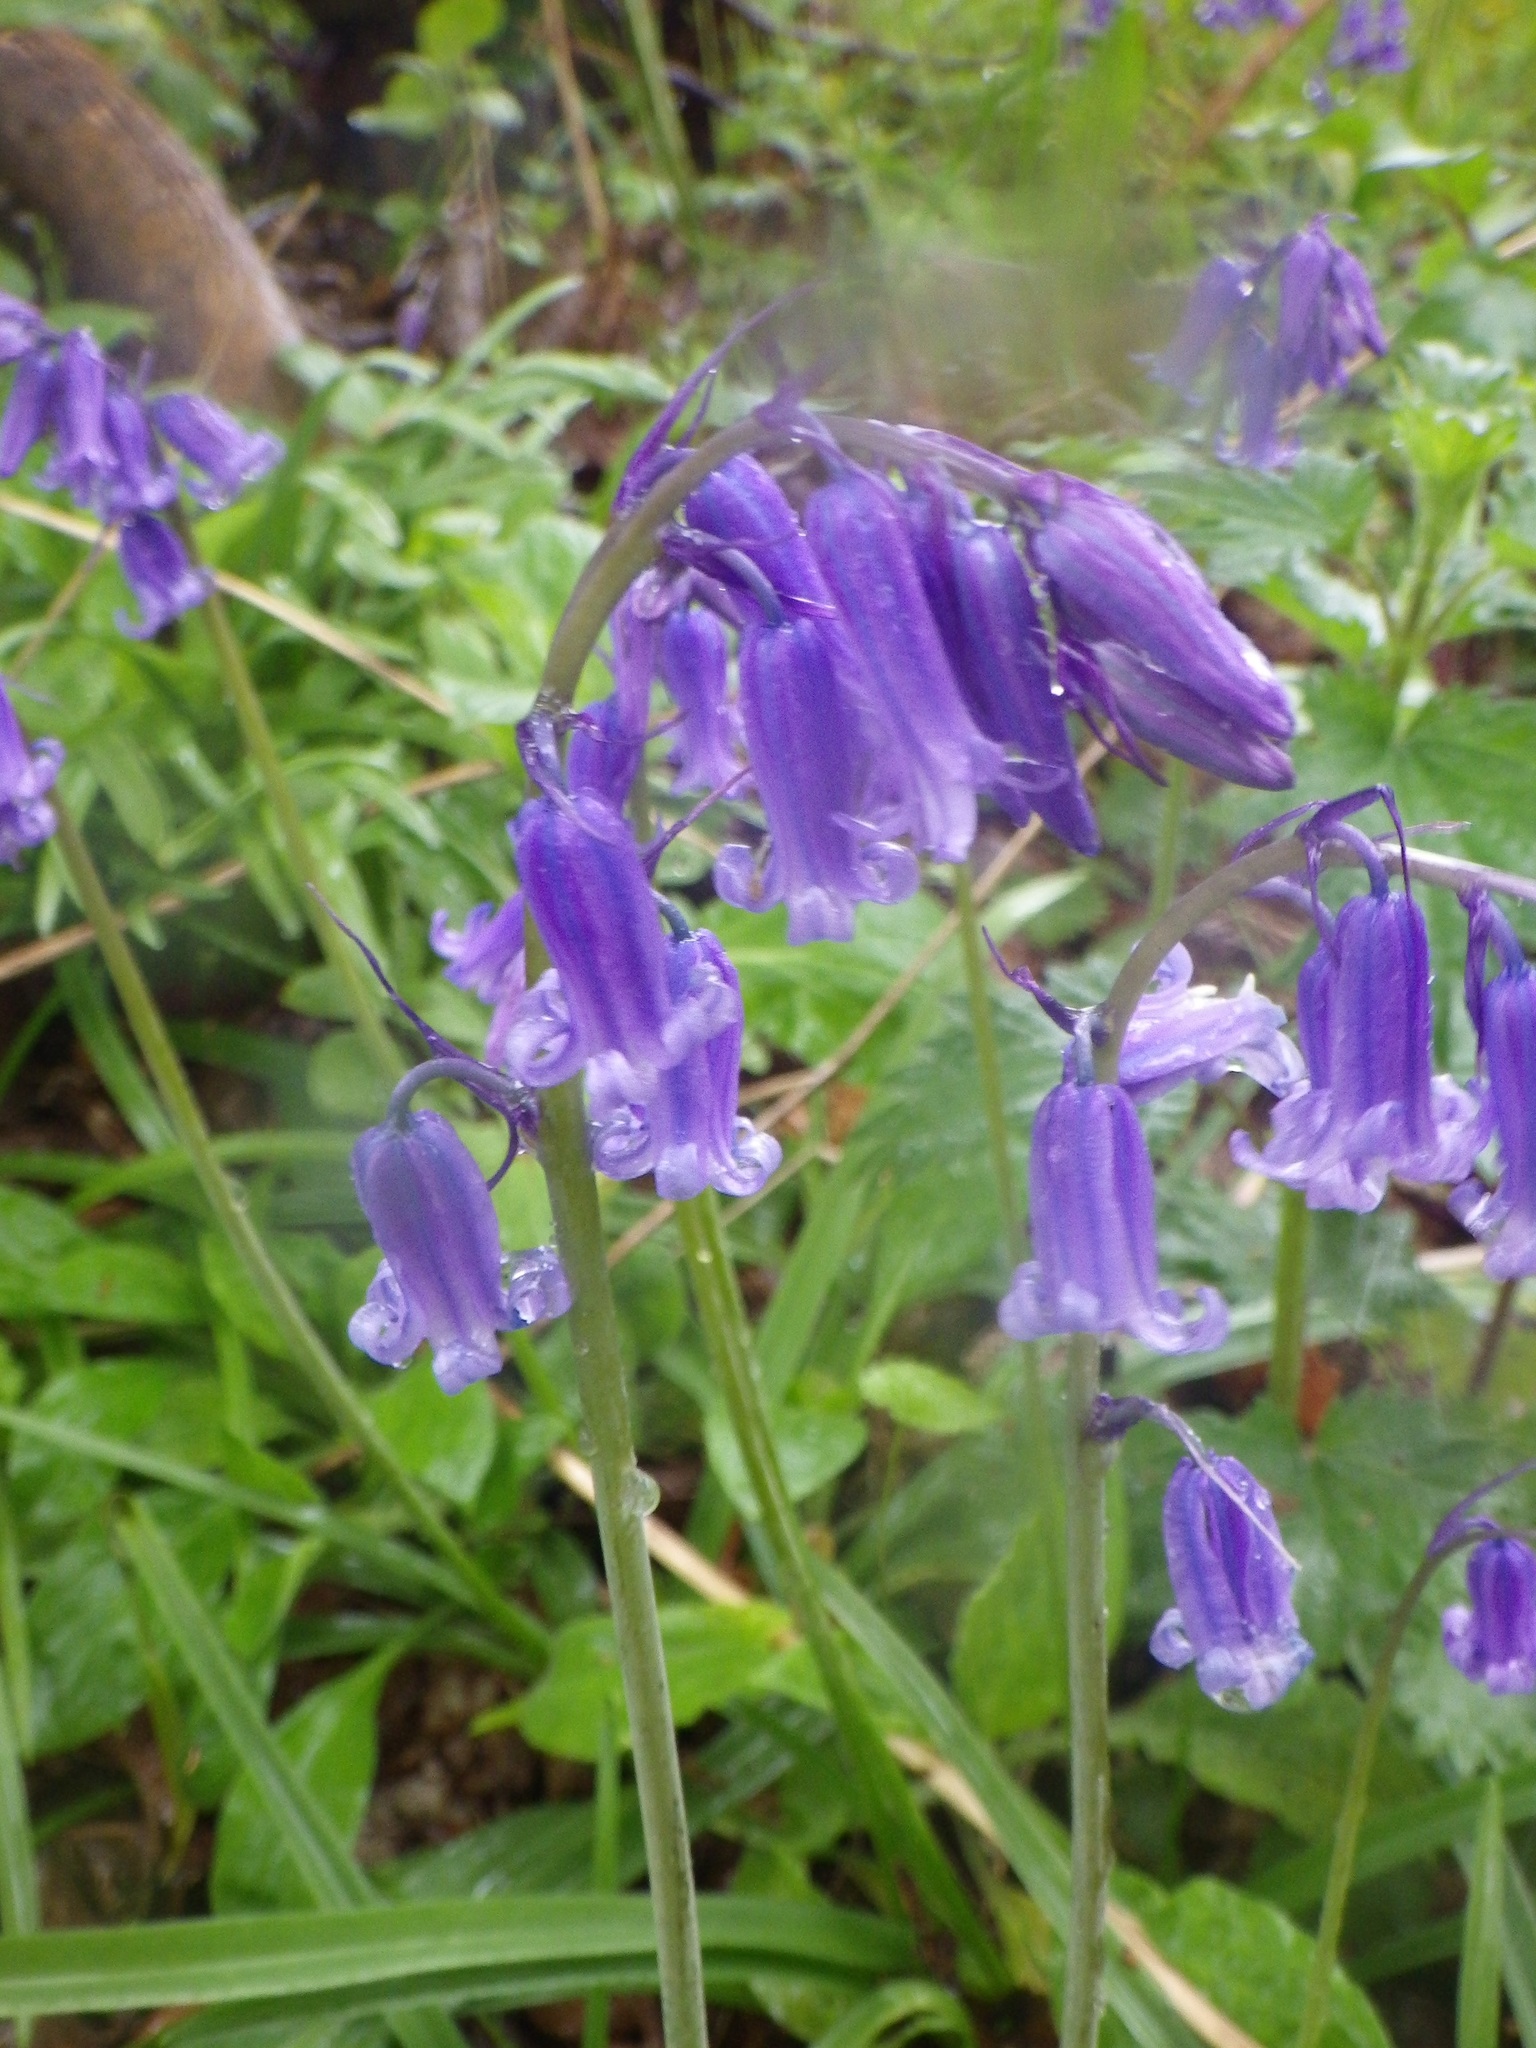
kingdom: Plantae
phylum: Tracheophyta
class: Liliopsida
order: Asparagales
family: Asparagaceae
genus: Hyacinthoides
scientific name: Hyacinthoides non-scripta
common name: Bluebell
